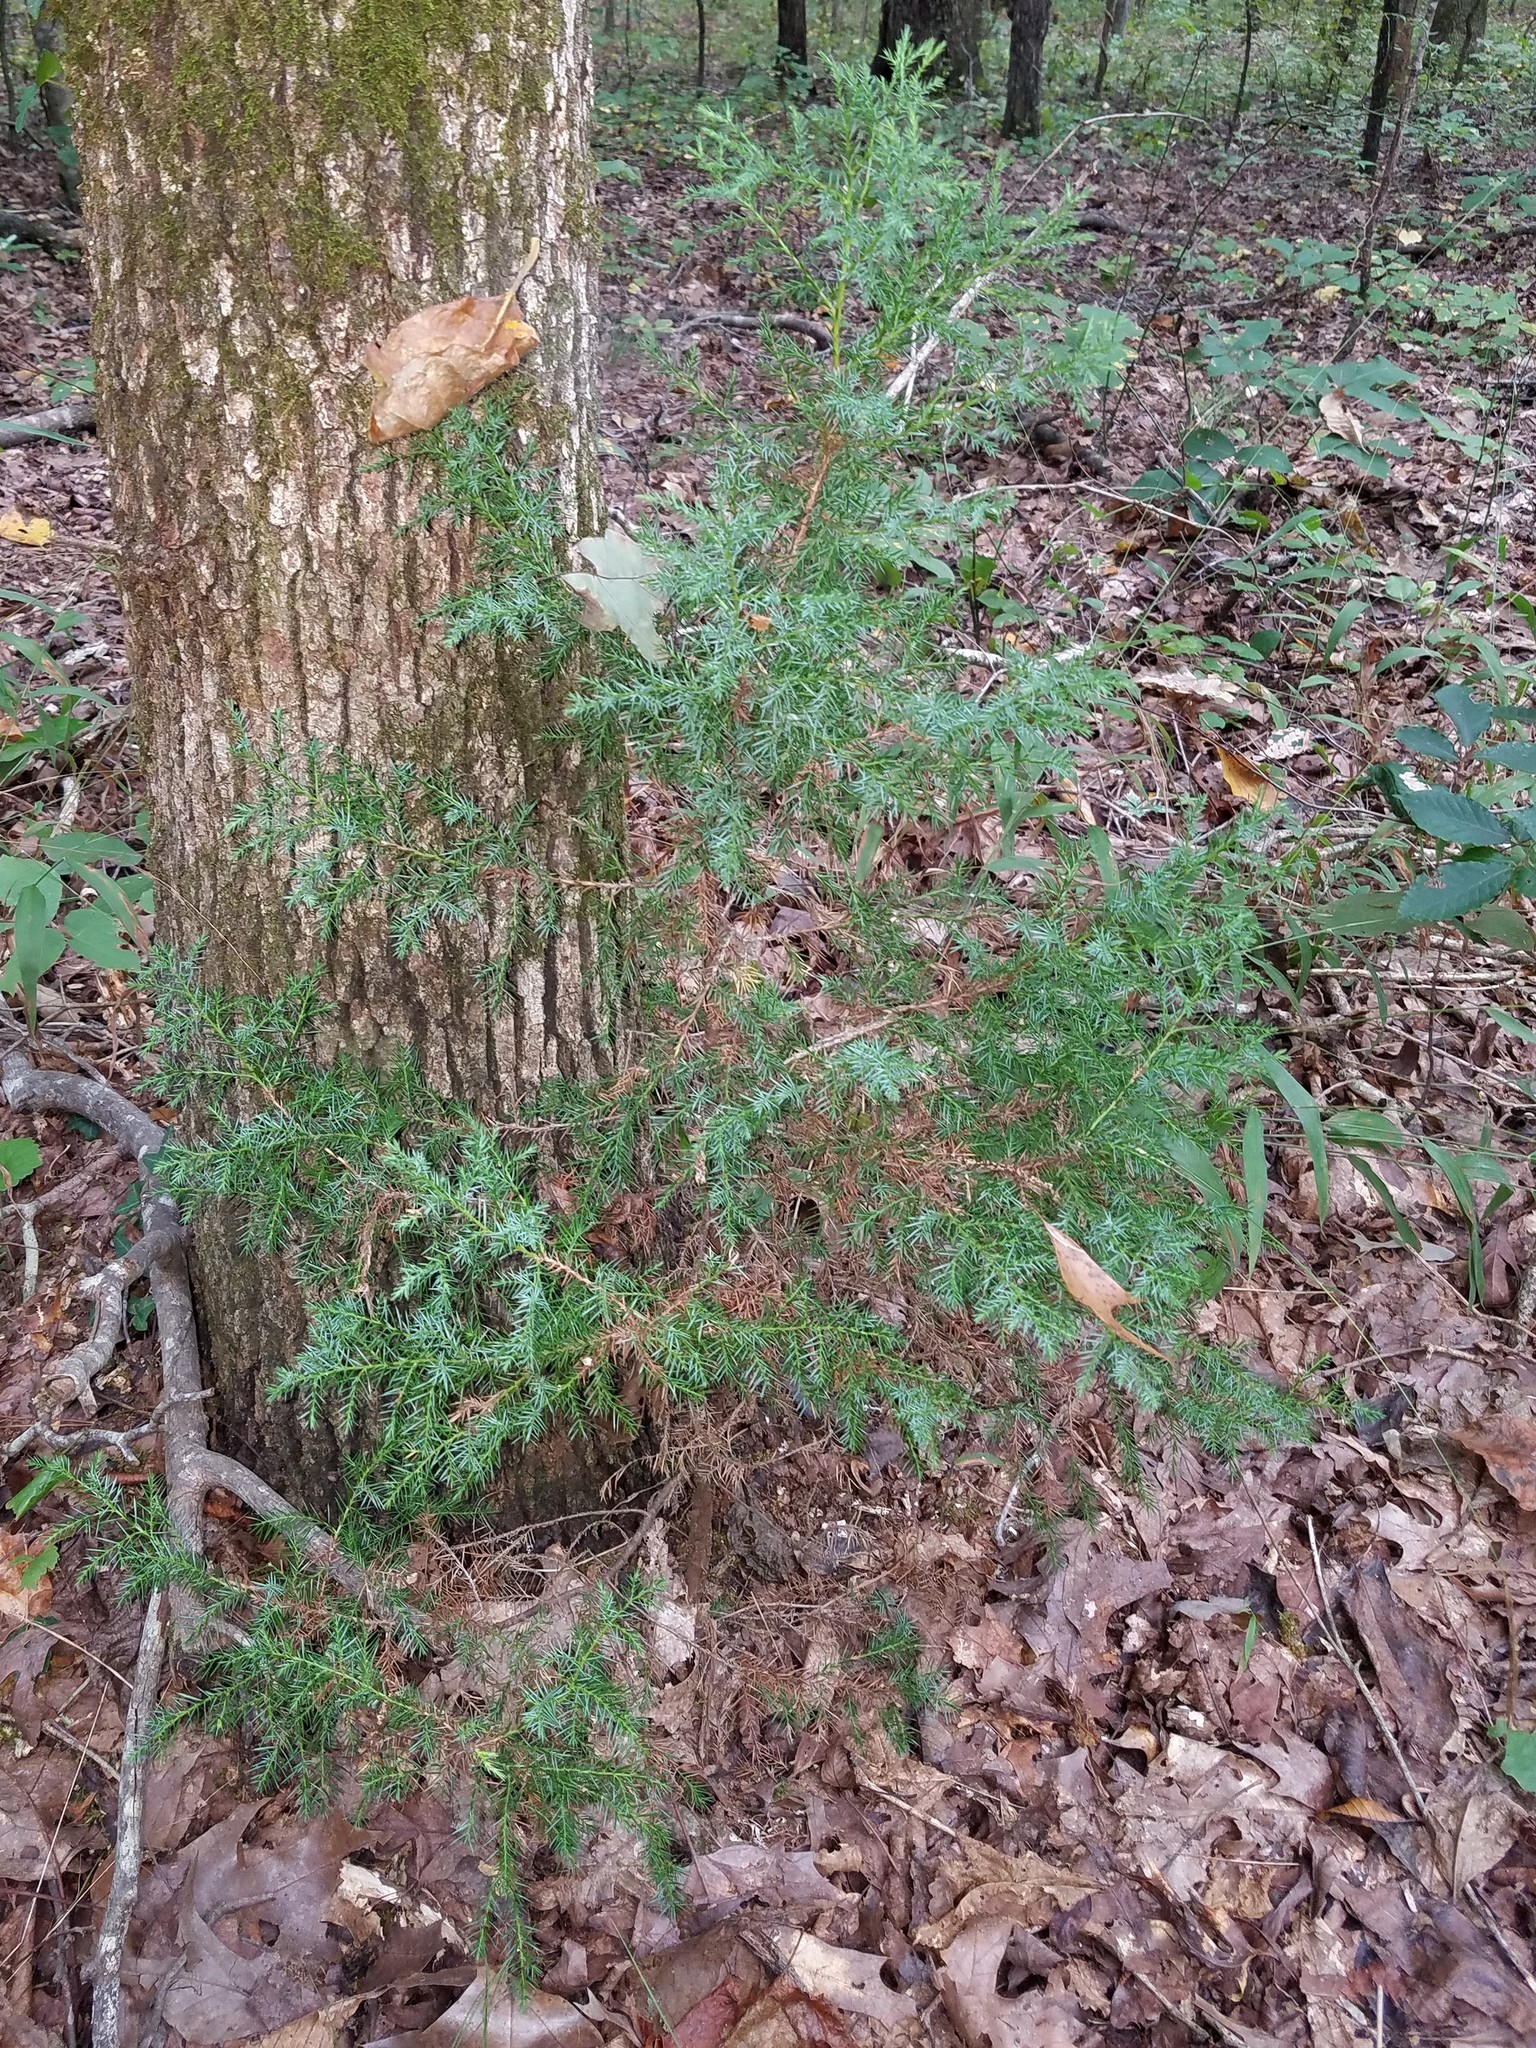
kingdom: Plantae
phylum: Tracheophyta
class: Pinopsida
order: Pinales
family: Cupressaceae
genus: Juniperus
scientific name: Juniperus virginiana
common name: Red juniper
